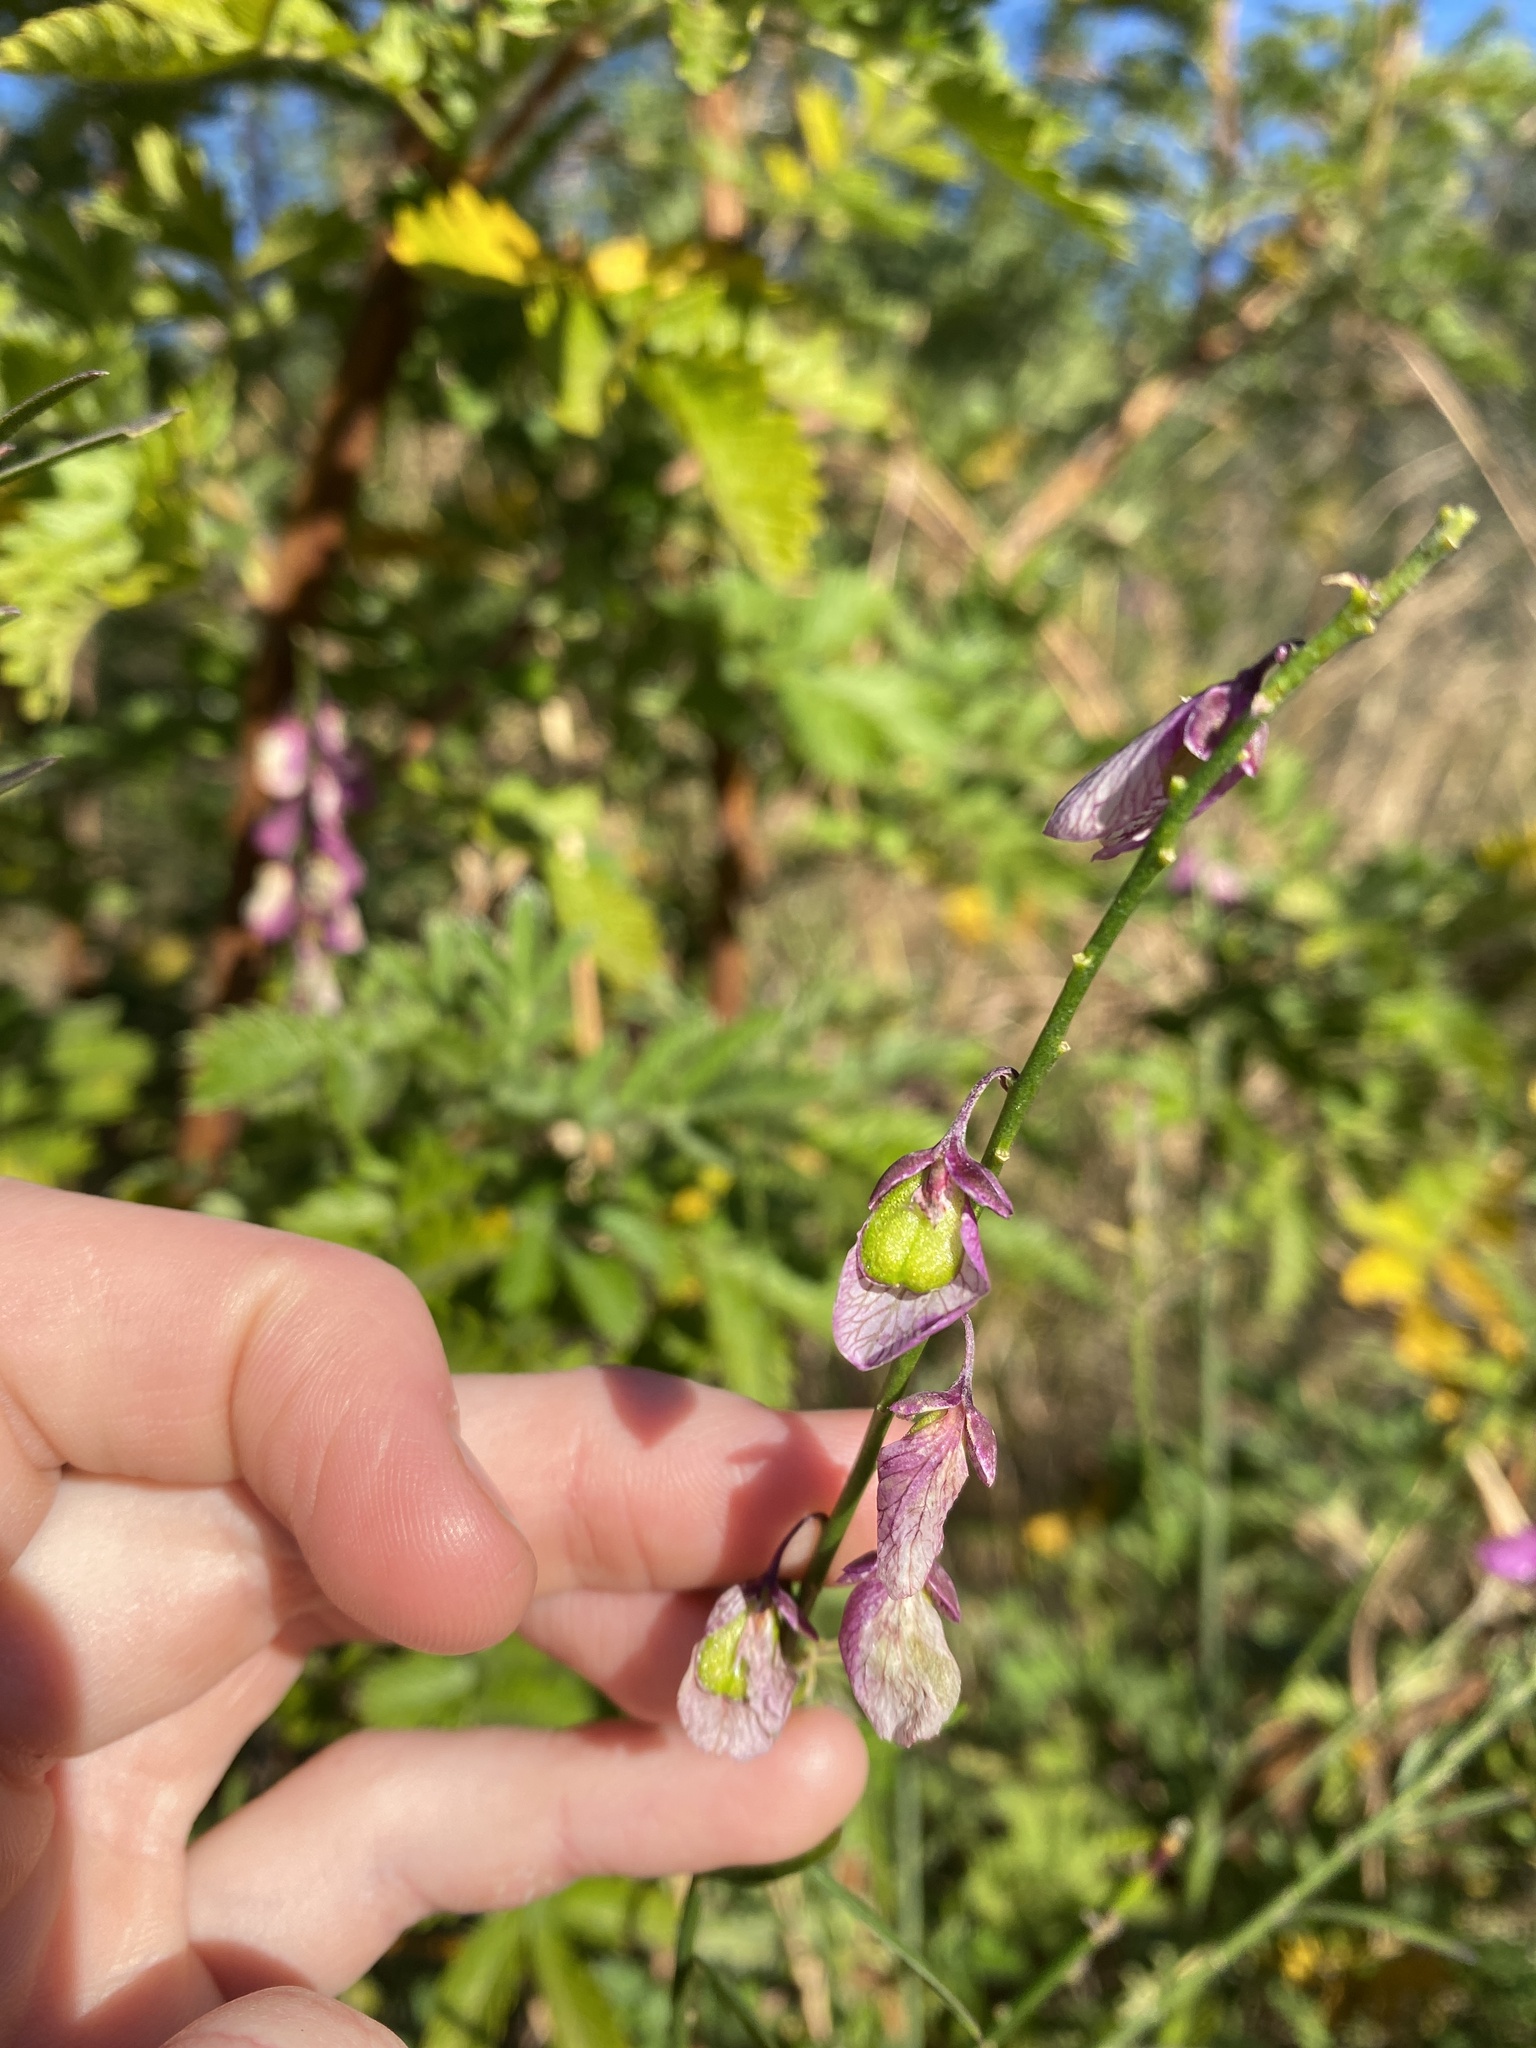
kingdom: Plantae
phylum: Tracheophyta
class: Magnoliopsida
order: Fabales
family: Polygalaceae
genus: Polygala
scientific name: Polygala virgata
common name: Milkwort
